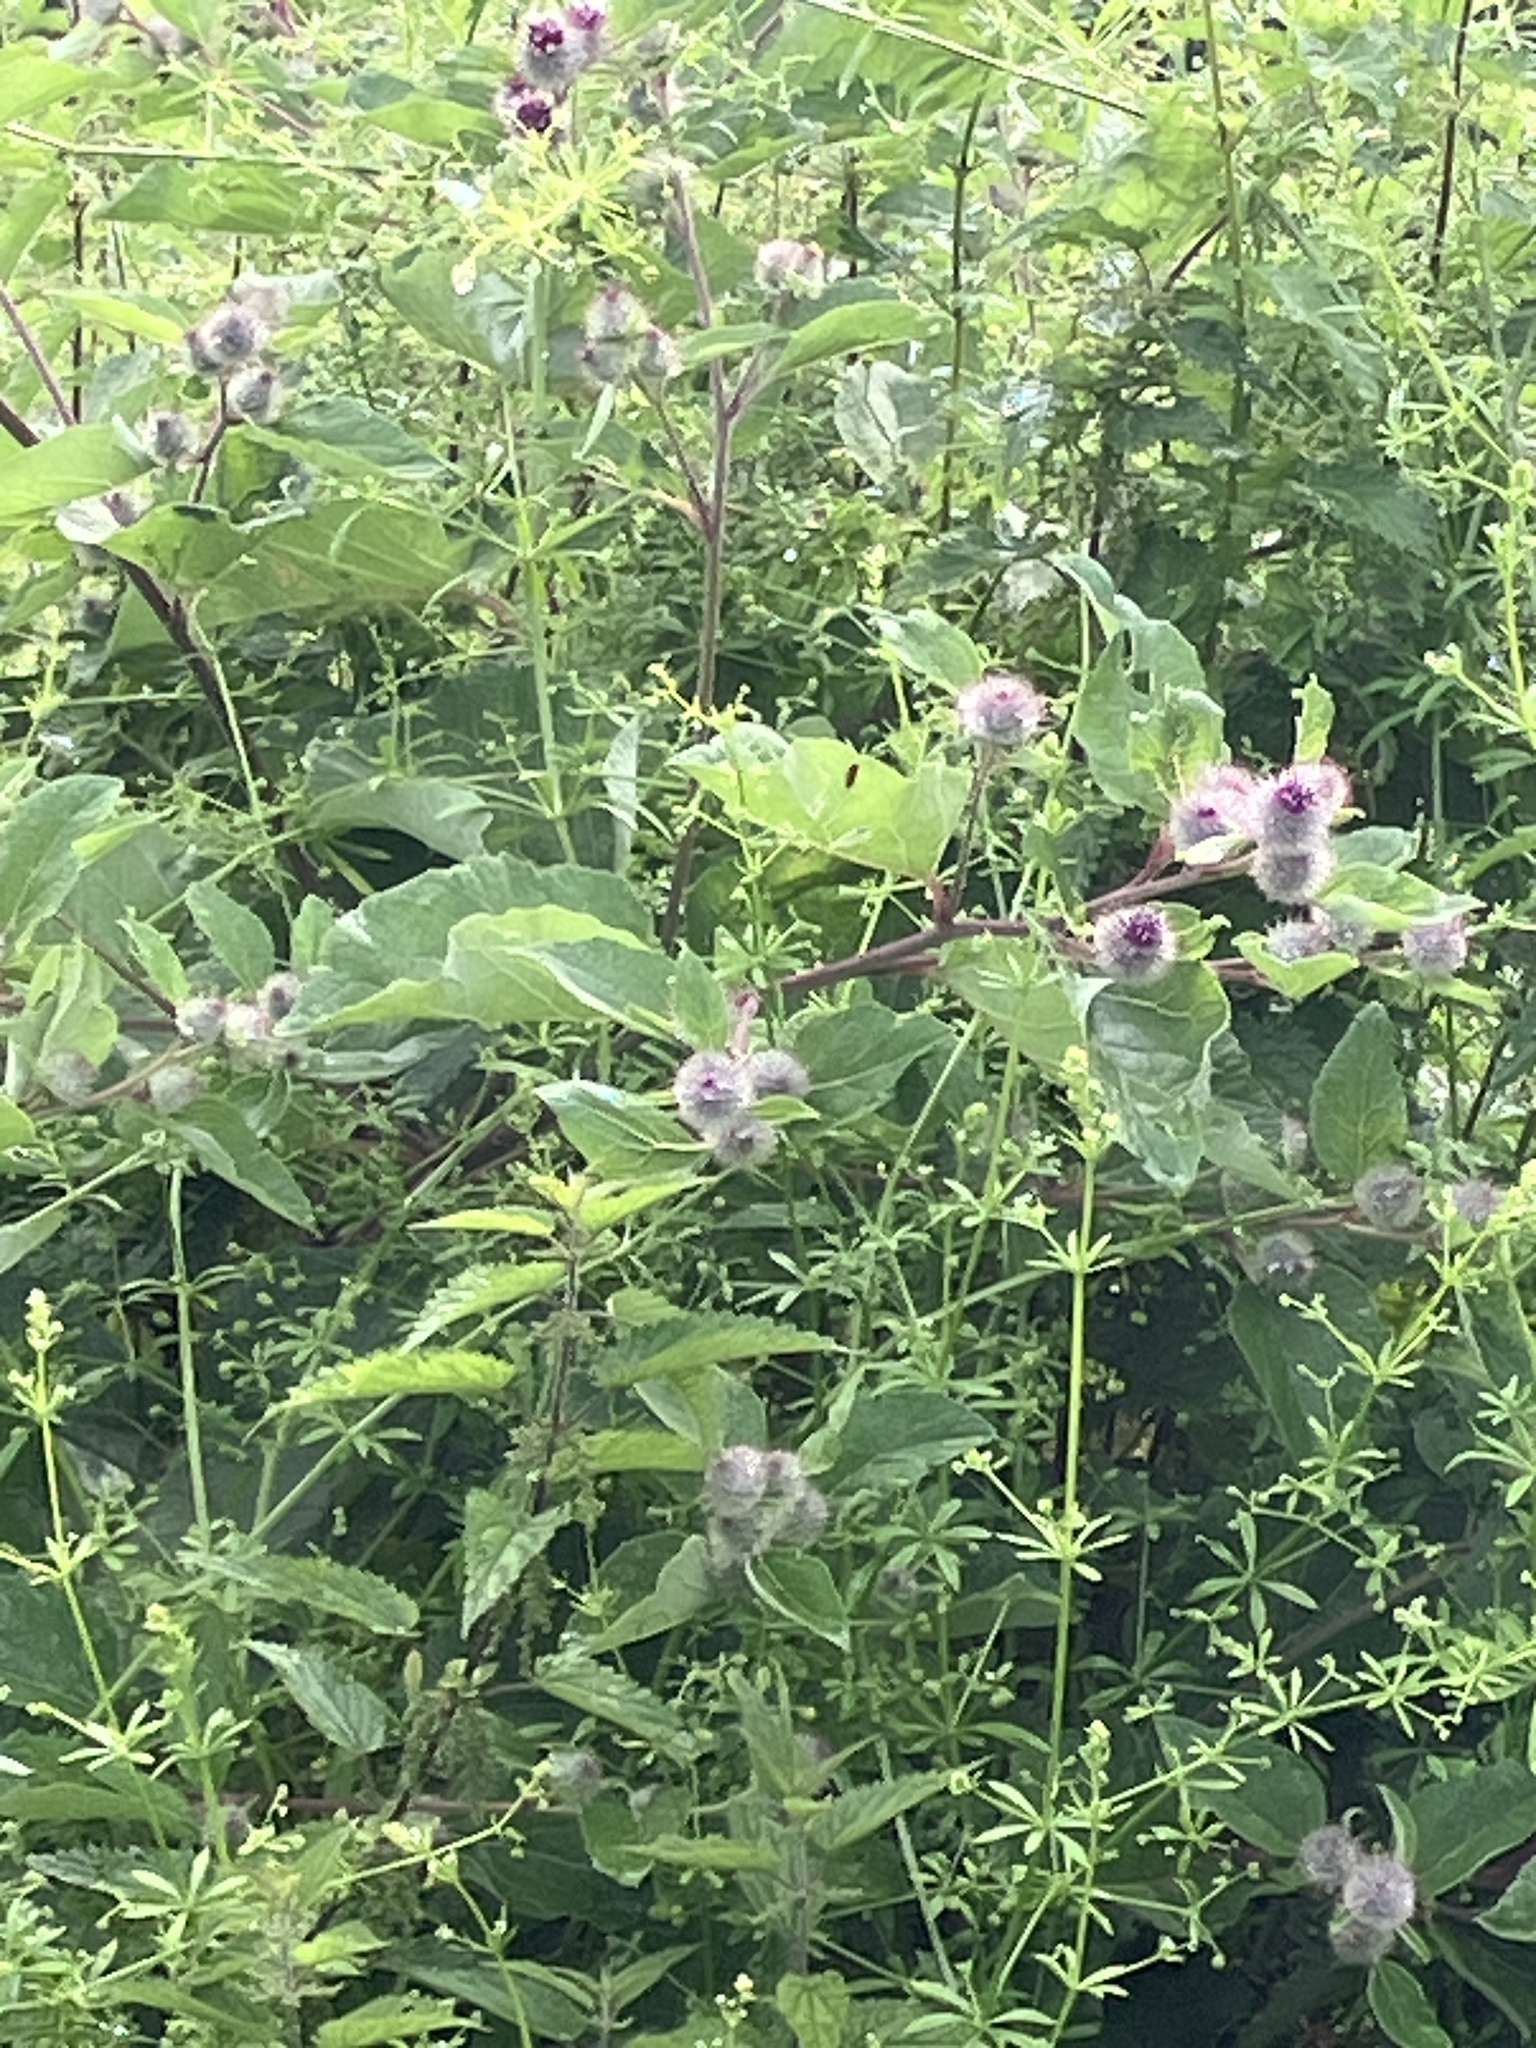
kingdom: Plantae
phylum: Tracheophyta
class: Magnoliopsida
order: Asterales
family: Asteraceae
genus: Arctium
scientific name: Arctium tomentosum
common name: Woolly burdock
